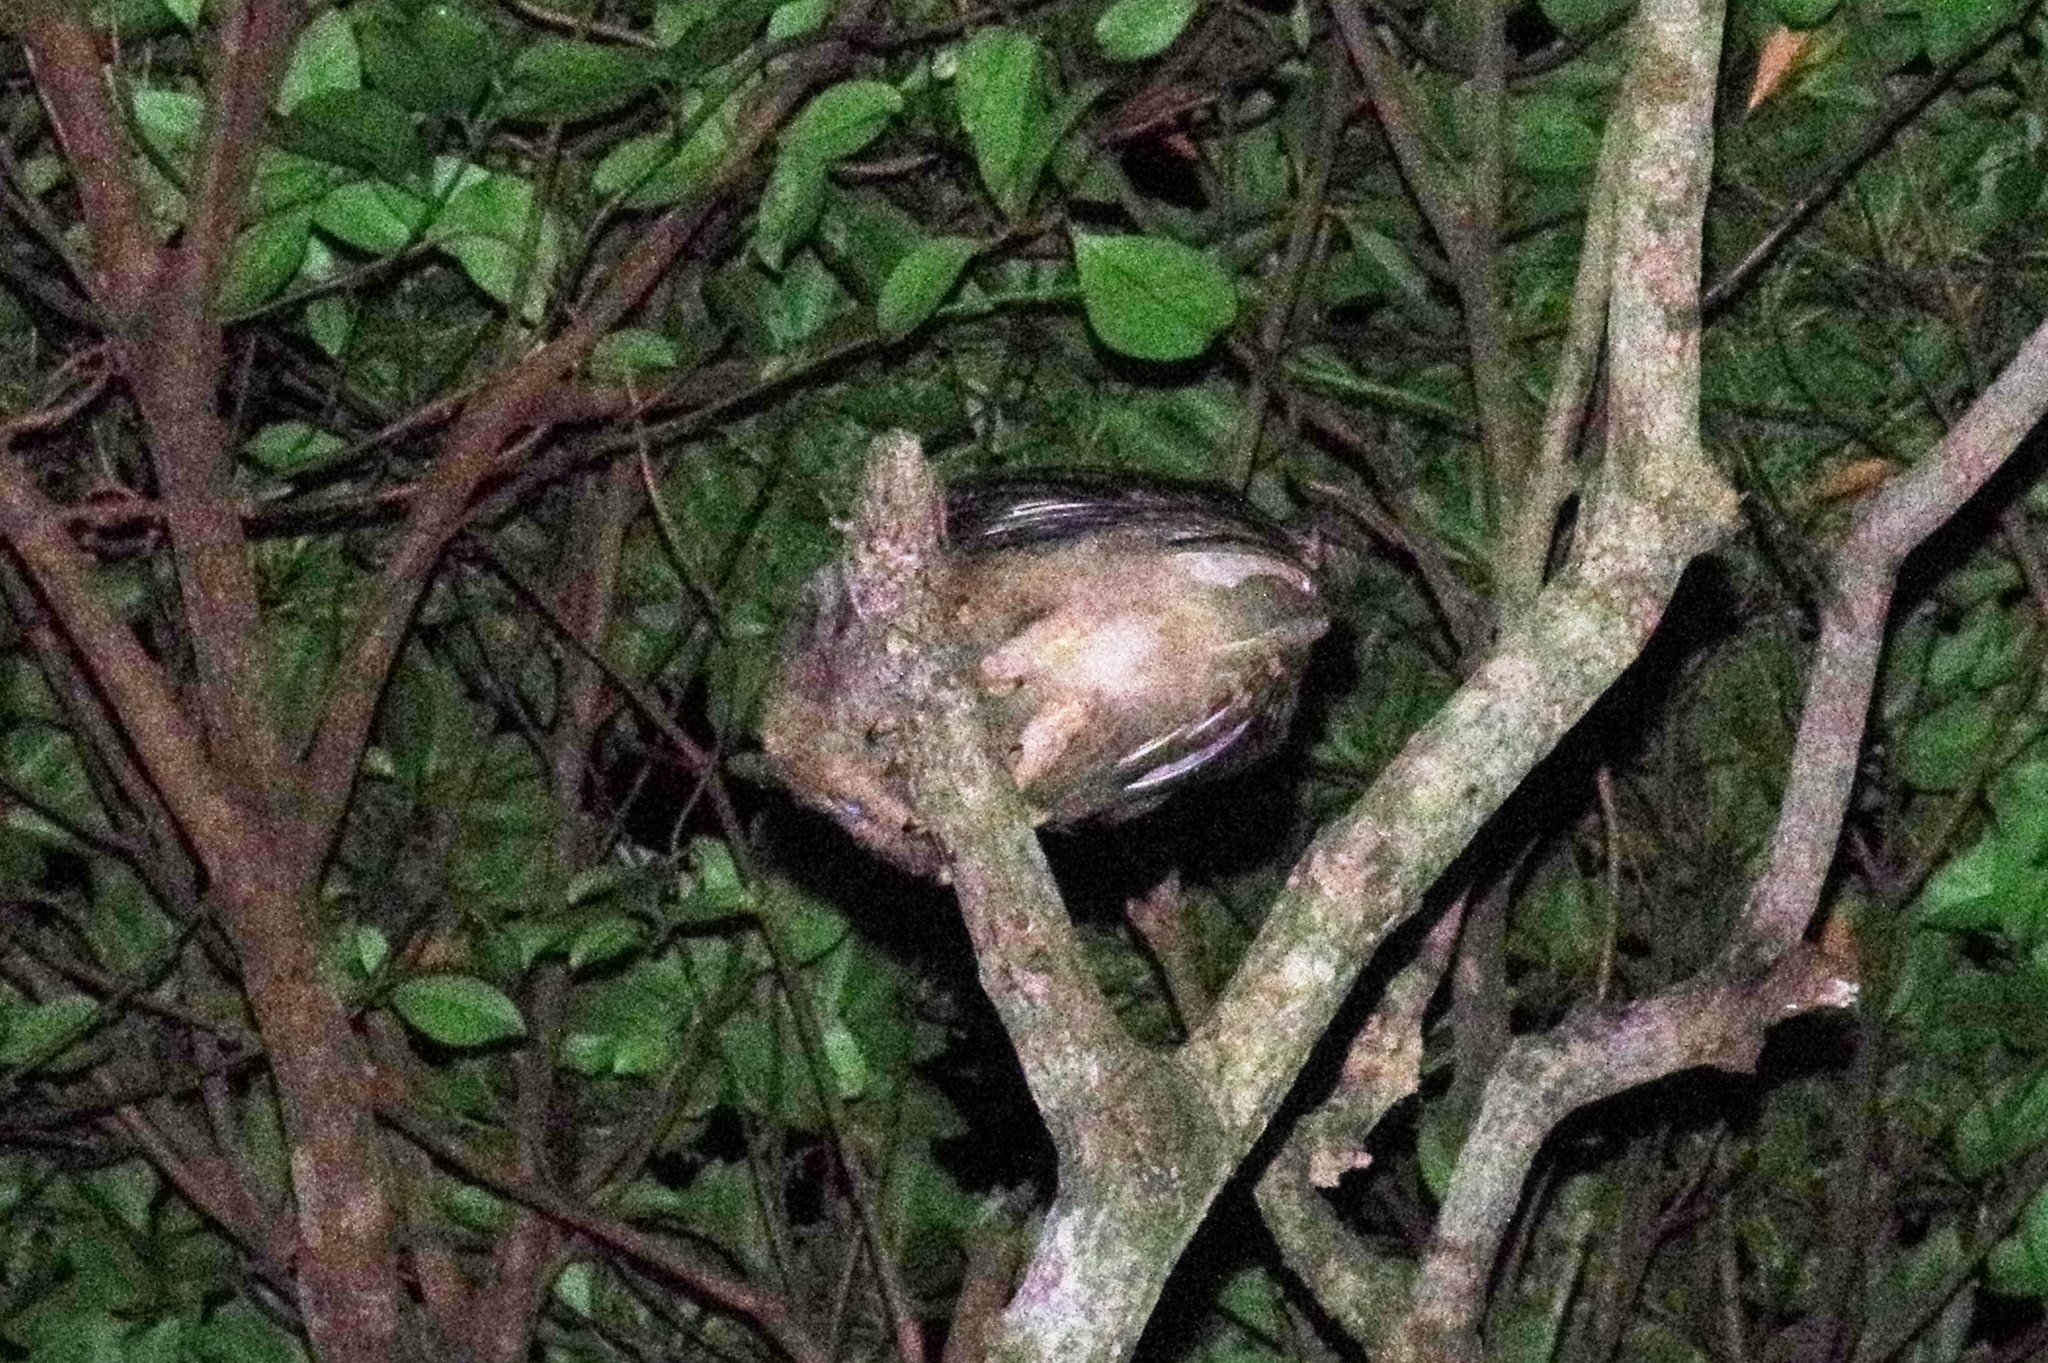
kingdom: Animalia
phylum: Chordata
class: Aves
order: Strigiformes
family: Strigidae
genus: Otus
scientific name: Otus semitorques
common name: Japanese scops owl
